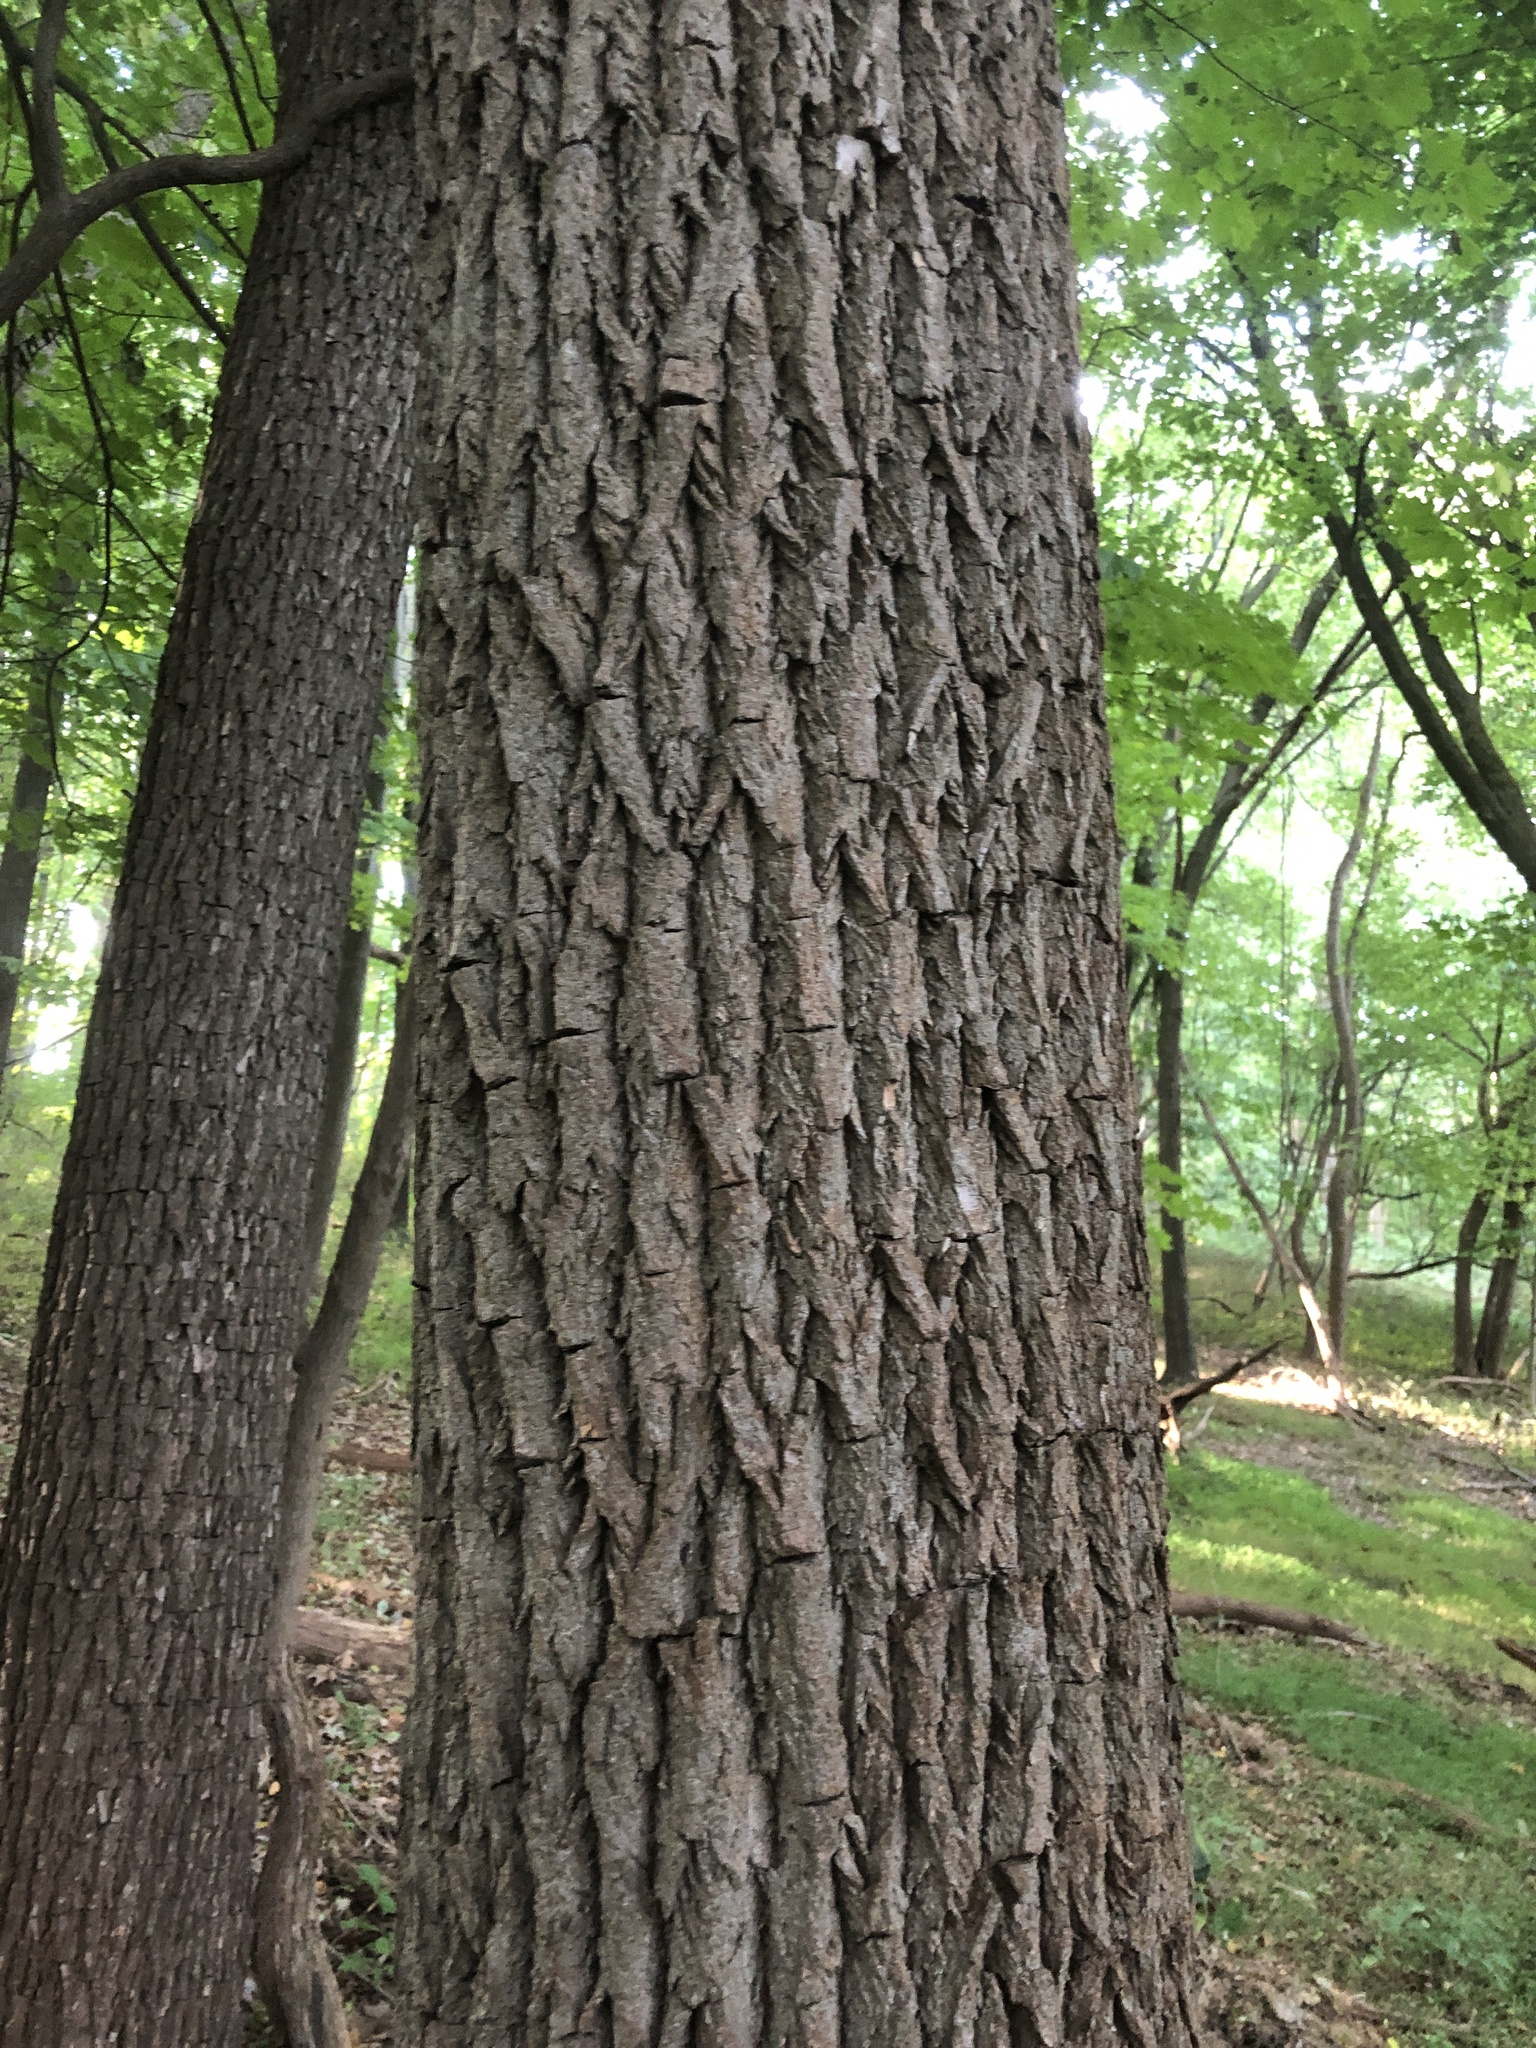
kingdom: Plantae
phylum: Tracheophyta
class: Magnoliopsida
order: Fagales
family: Juglandaceae
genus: Juglans
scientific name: Juglans nigra
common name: Black walnut
